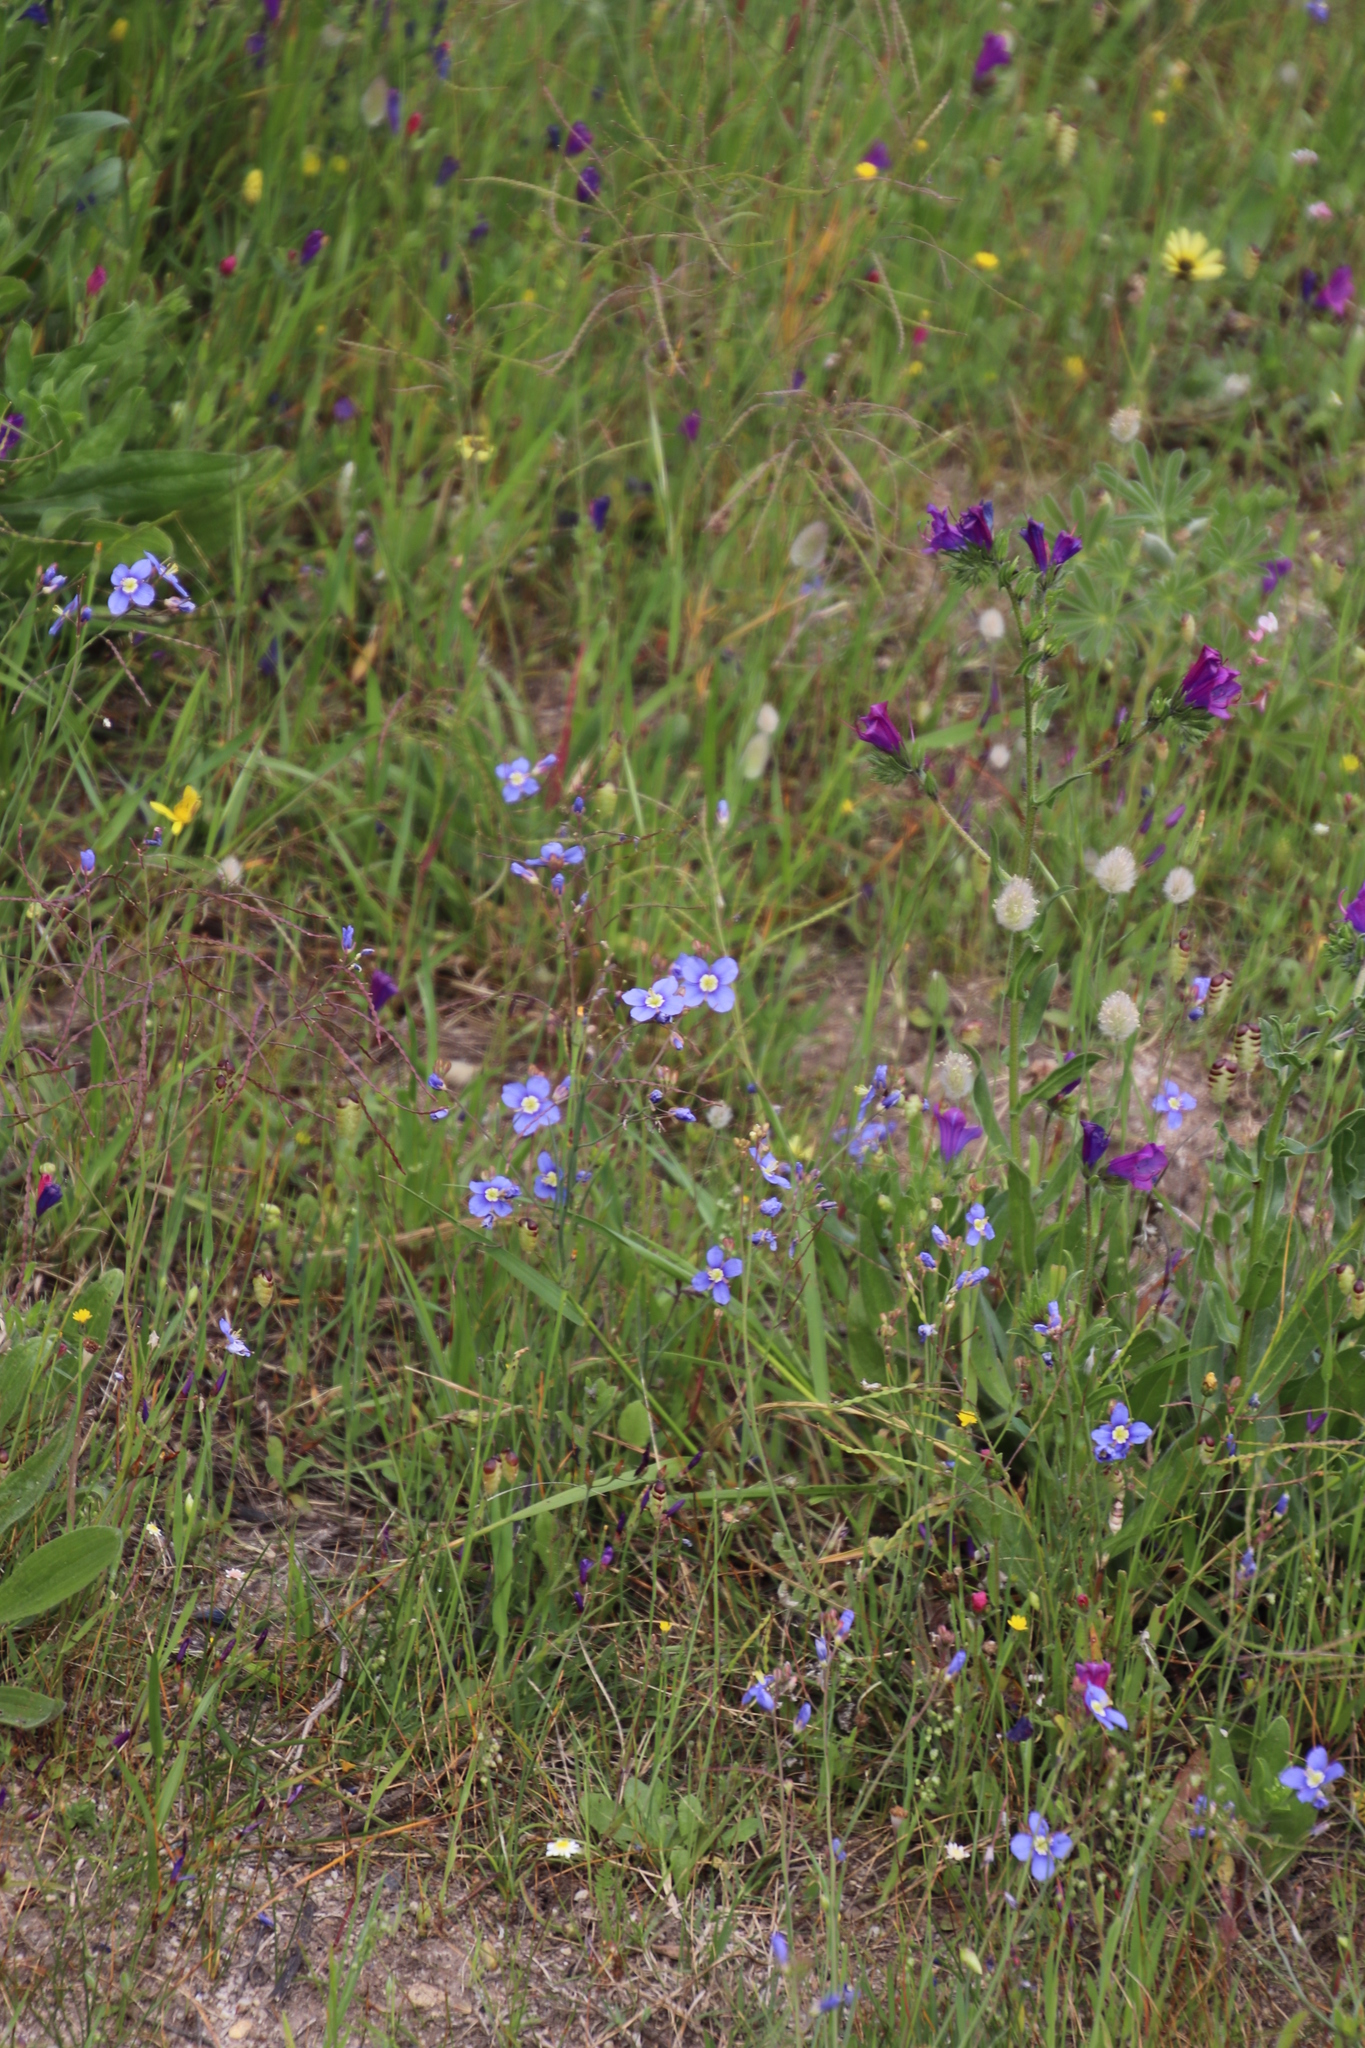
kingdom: Plantae
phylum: Tracheophyta
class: Magnoliopsida
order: Brassicales
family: Brassicaceae
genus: Heliophila
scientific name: Heliophila coronopifolia
